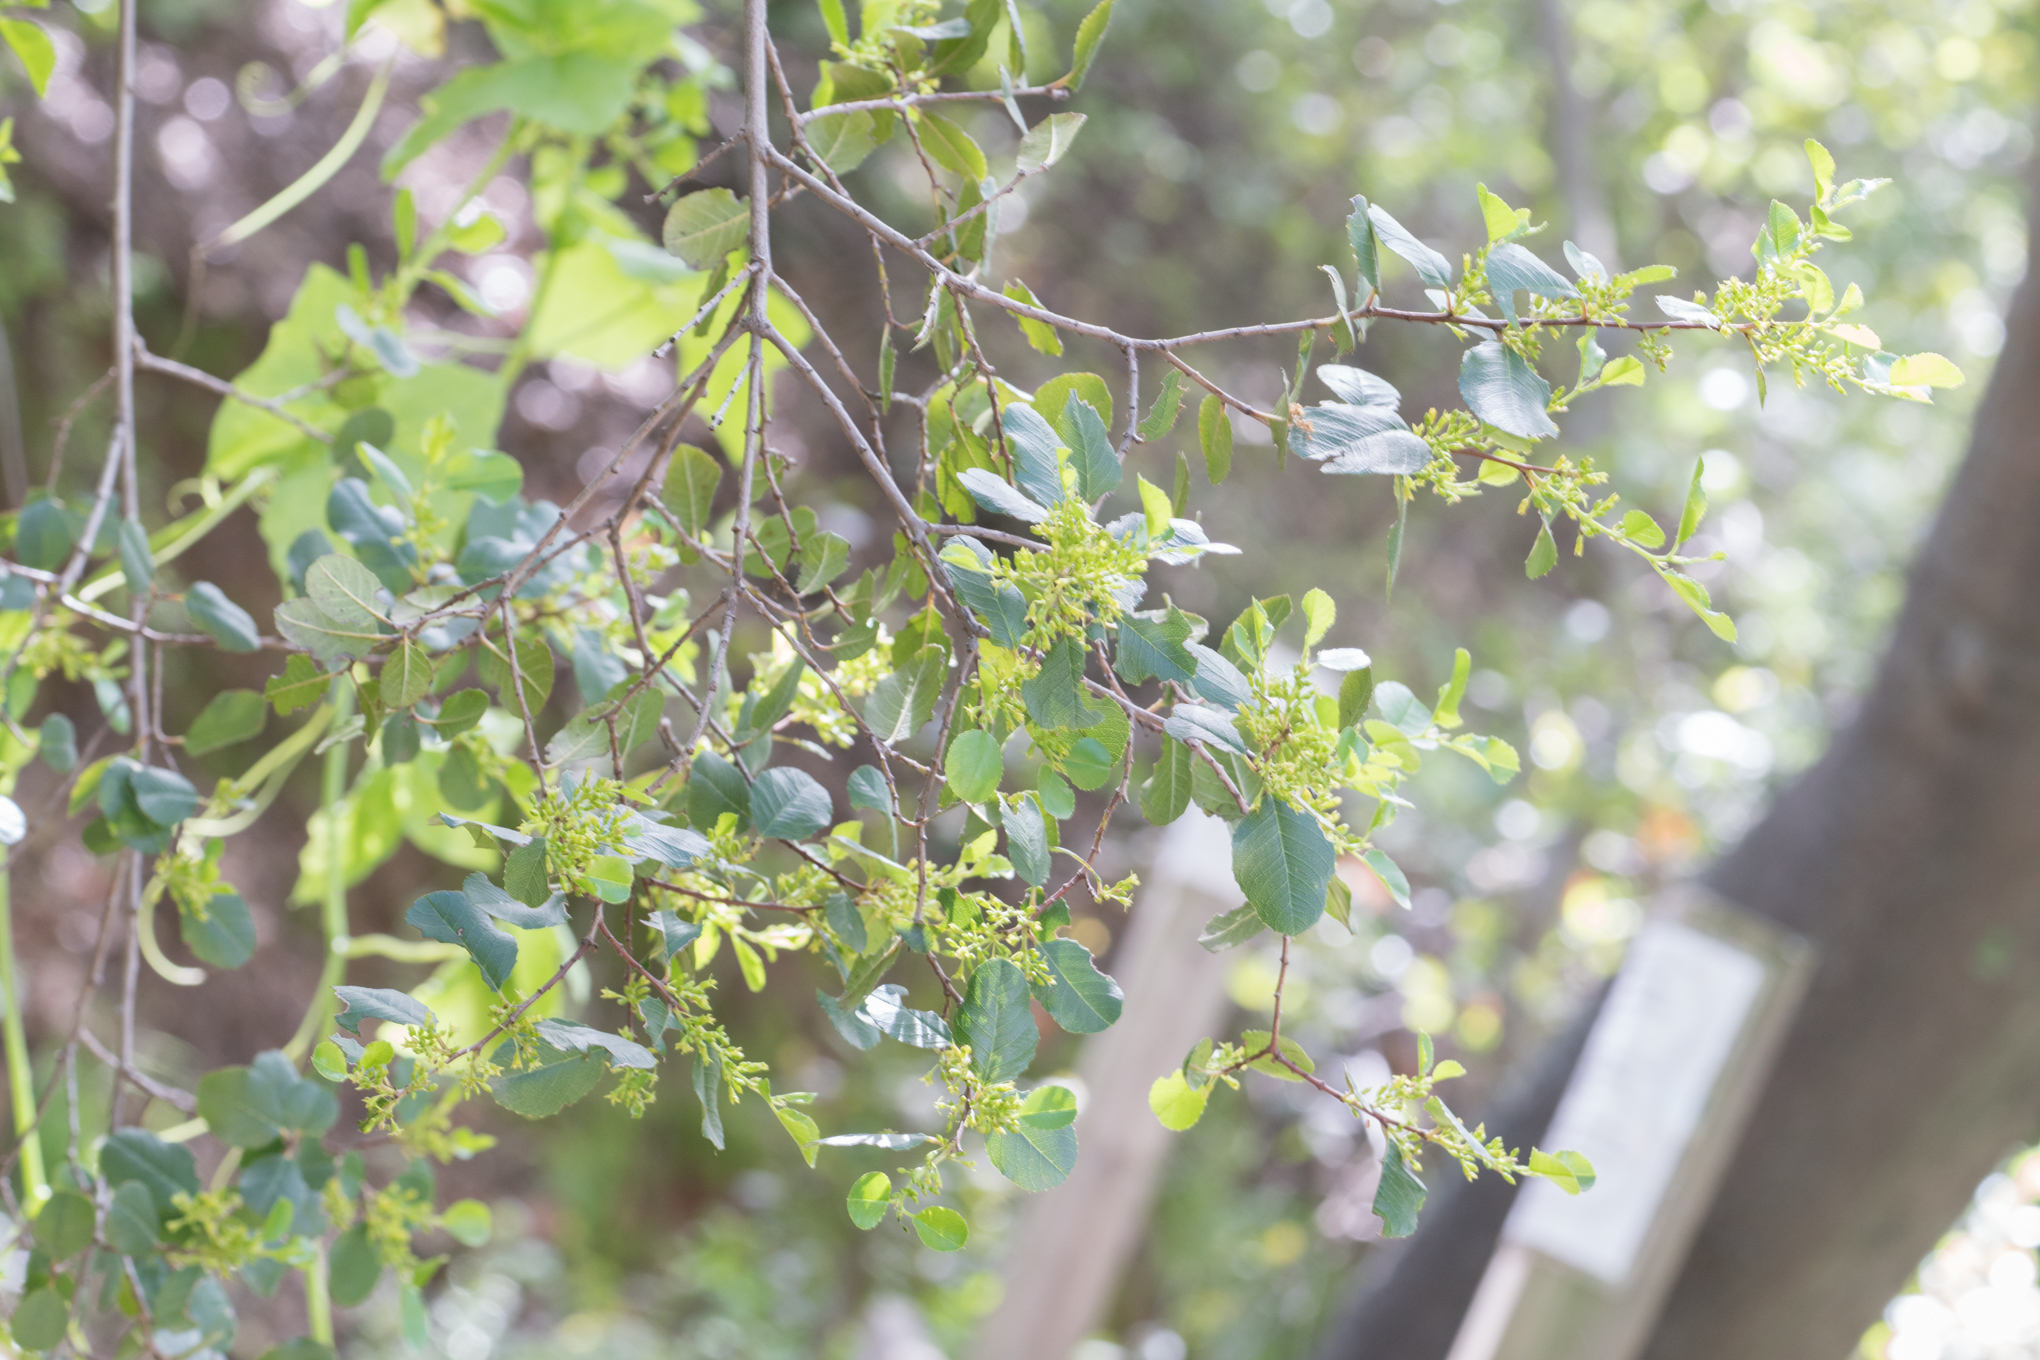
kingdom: Plantae
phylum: Tracheophyta
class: Magnoliopsida
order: Rosales
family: Rhamnaceae
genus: Endotropis
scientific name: Endotropis crocea
